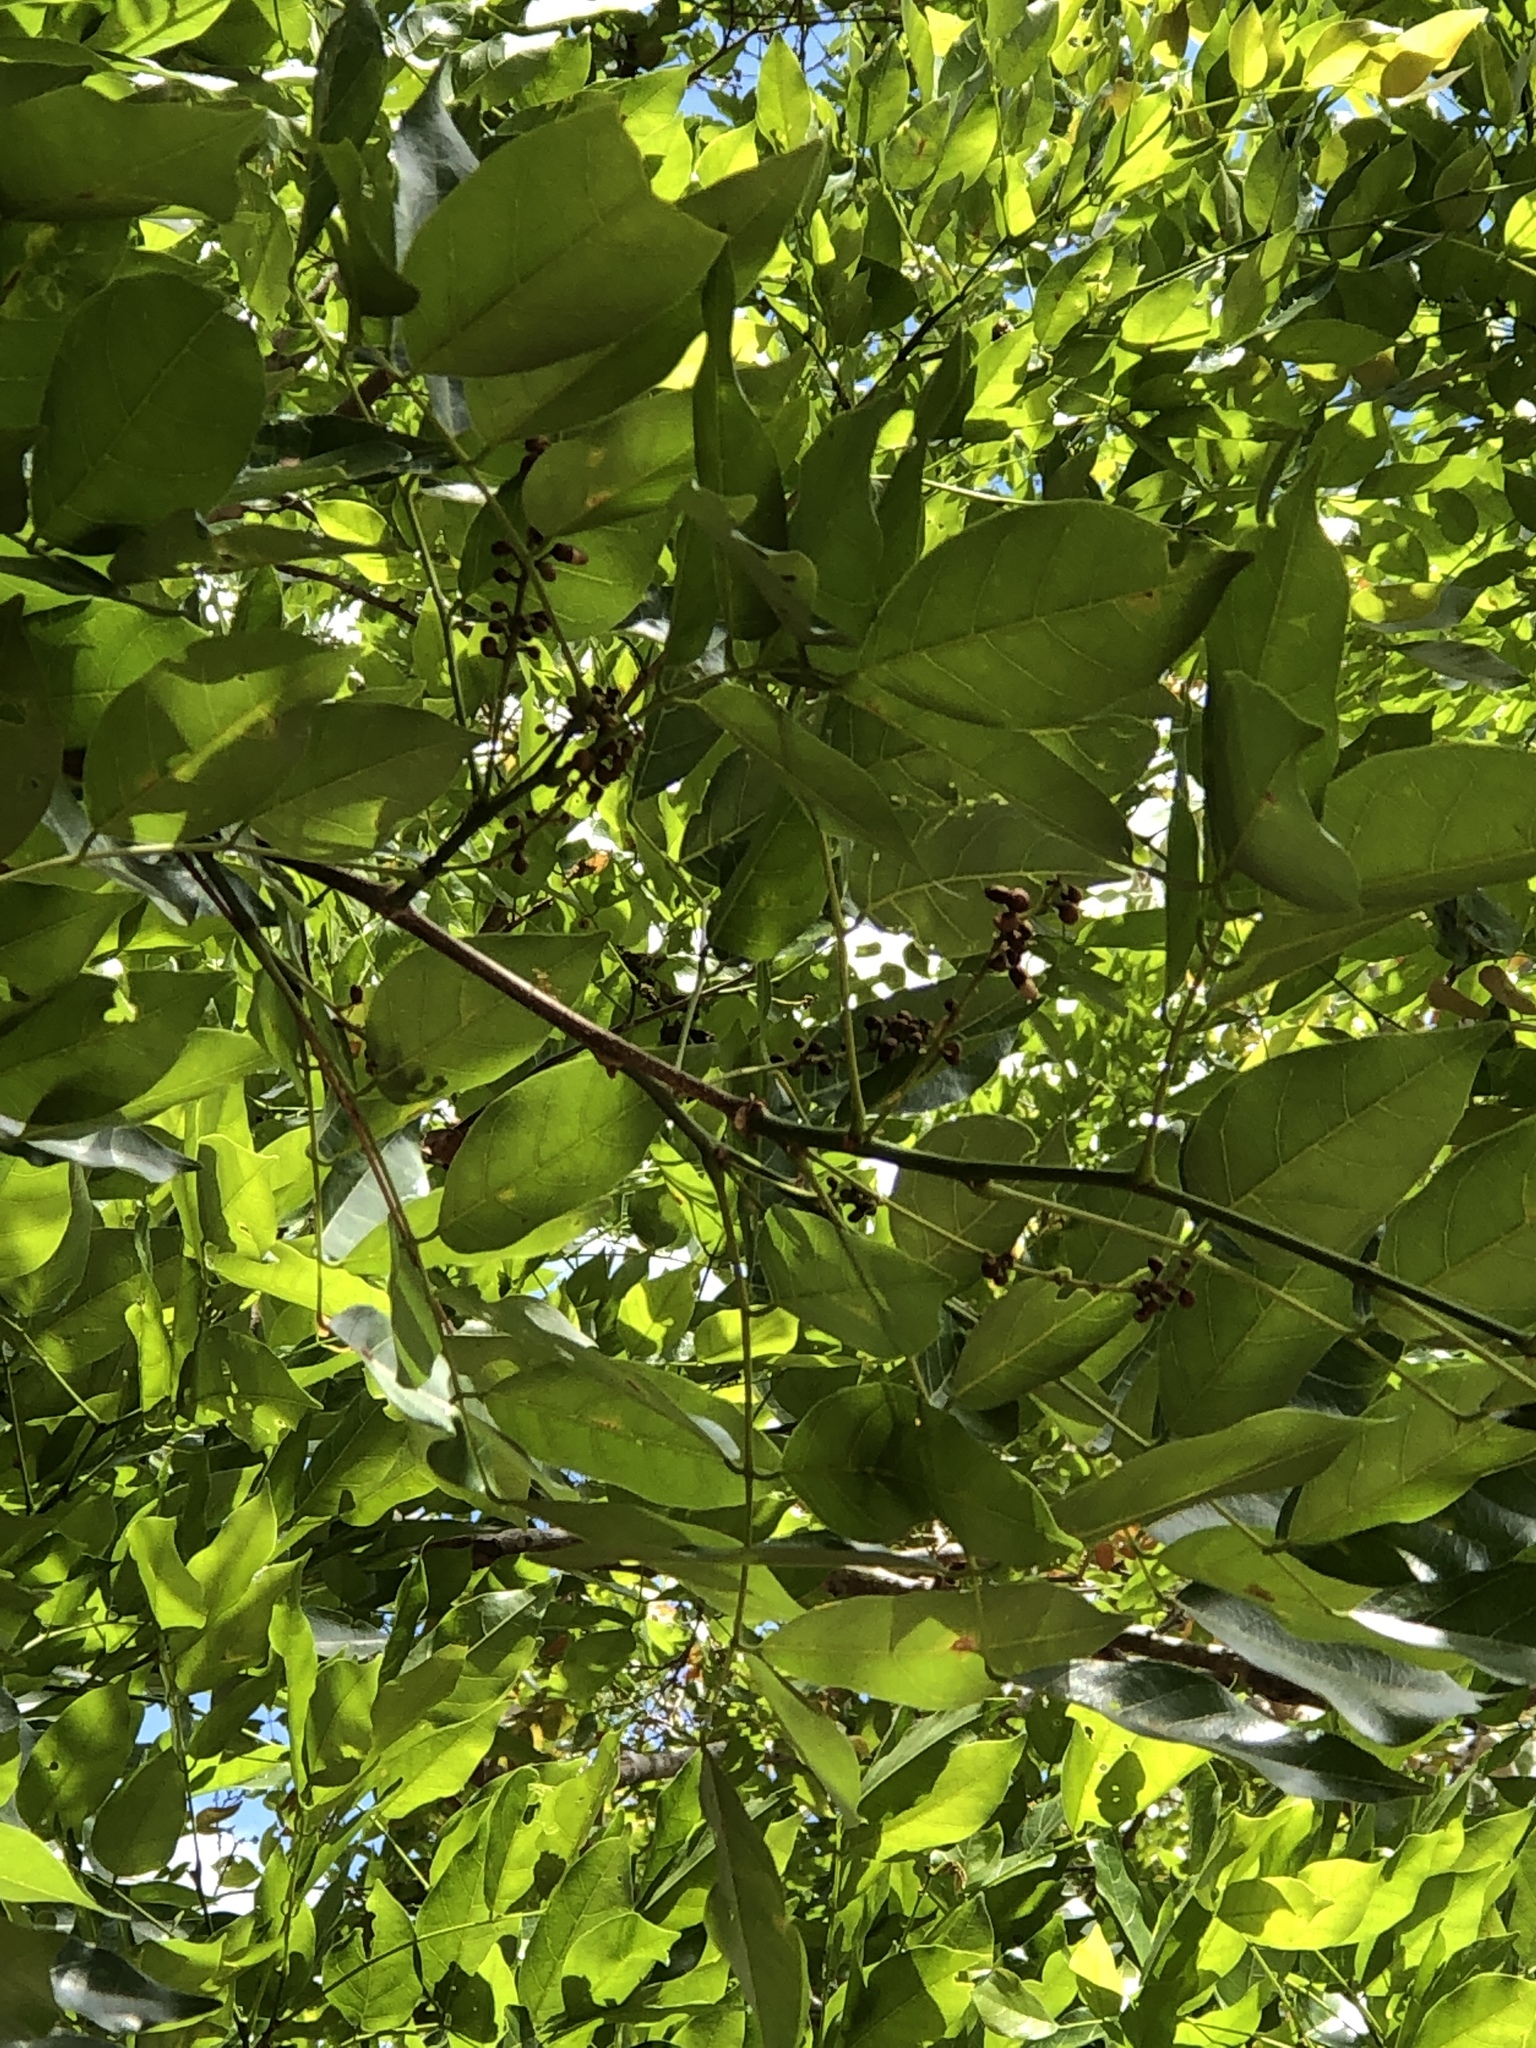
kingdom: Plantae
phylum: Tracheophyta
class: Magnoliopsida
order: Fabales
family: Fabaceae
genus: Pongamia
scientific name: Pongamia pinnata
